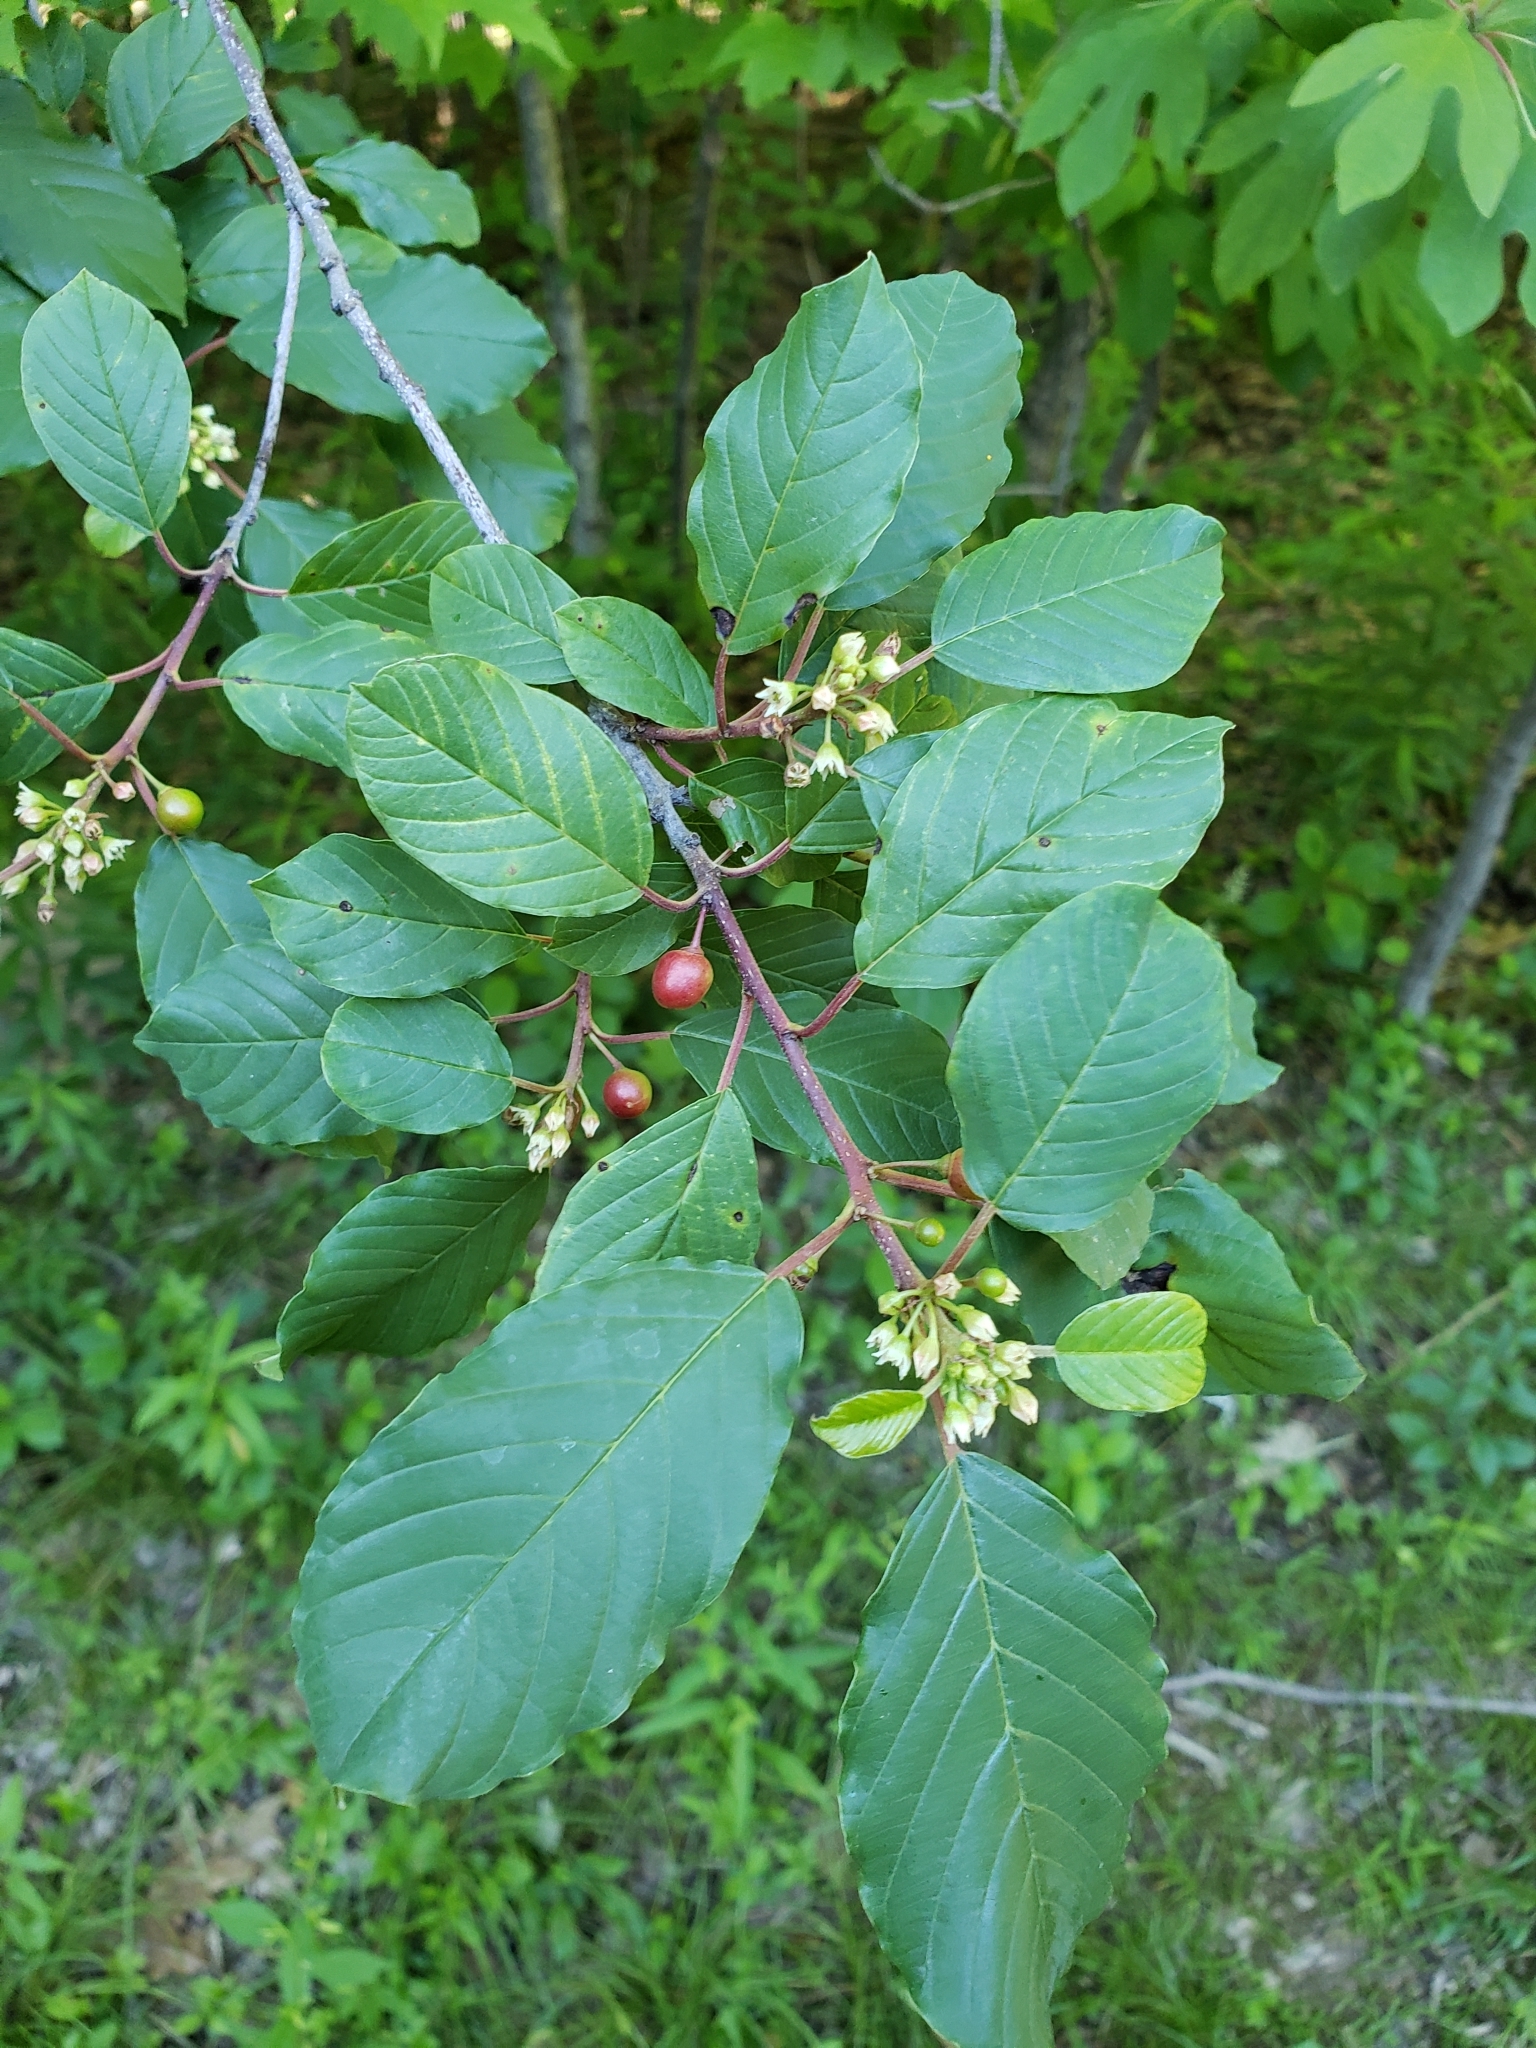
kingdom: Plantae
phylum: Tracheophyta
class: Magnoliopsida
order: Rosales
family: Rhamnaceae
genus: Frangula
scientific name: Frangula alnus
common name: Alder buckthorn
